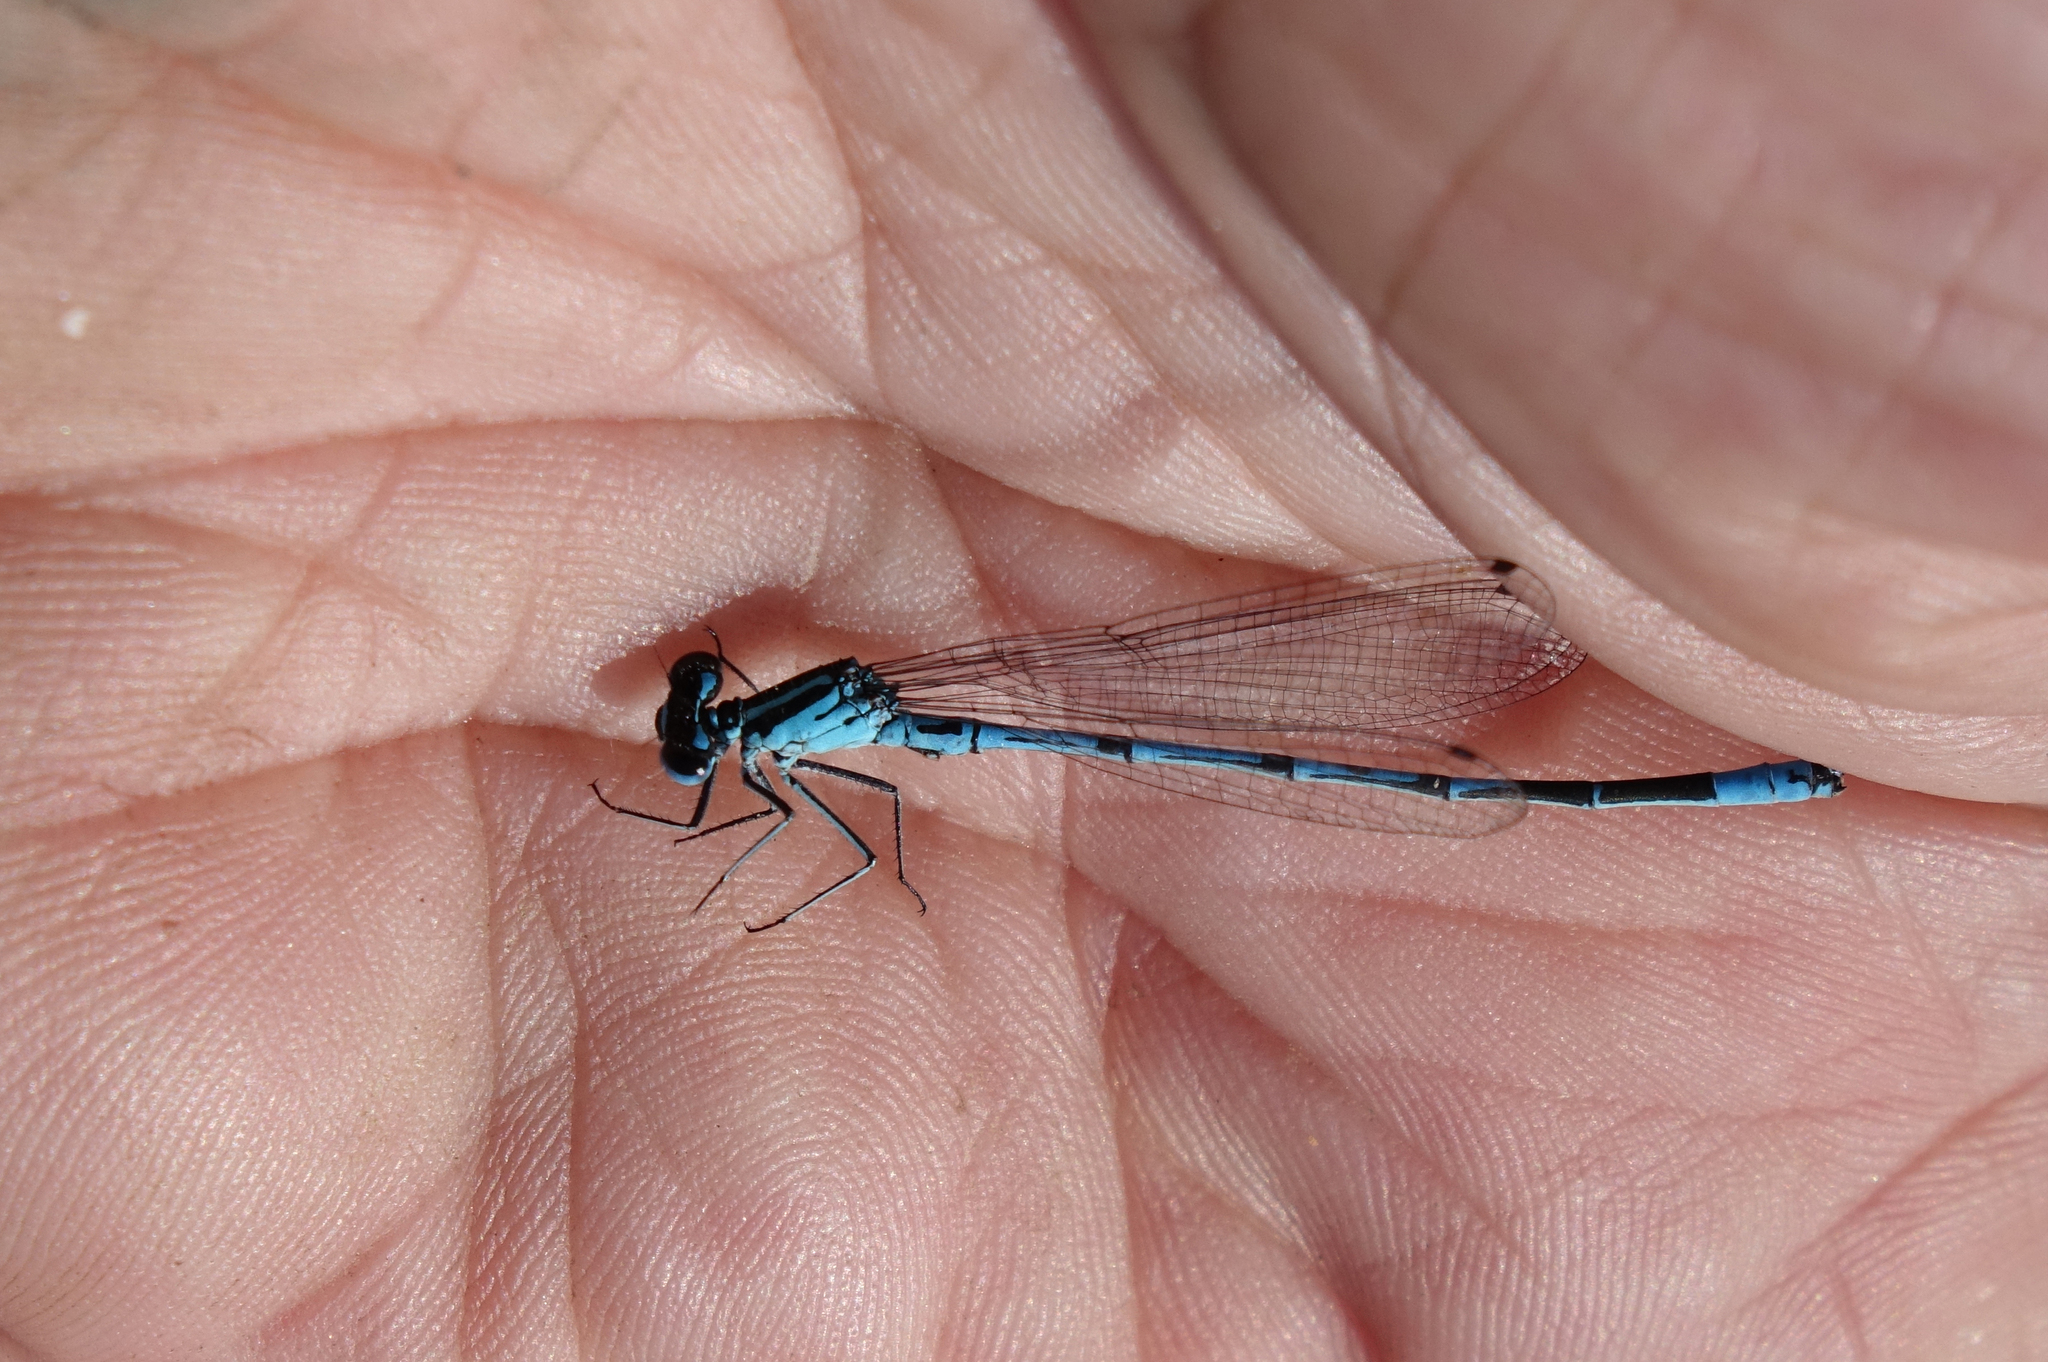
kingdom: Animalia
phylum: Arthropoda
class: Insecta
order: Odonata
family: Coenagrionidae
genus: Coenagrion
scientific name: Coenagrion puella
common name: Azure damselfly
